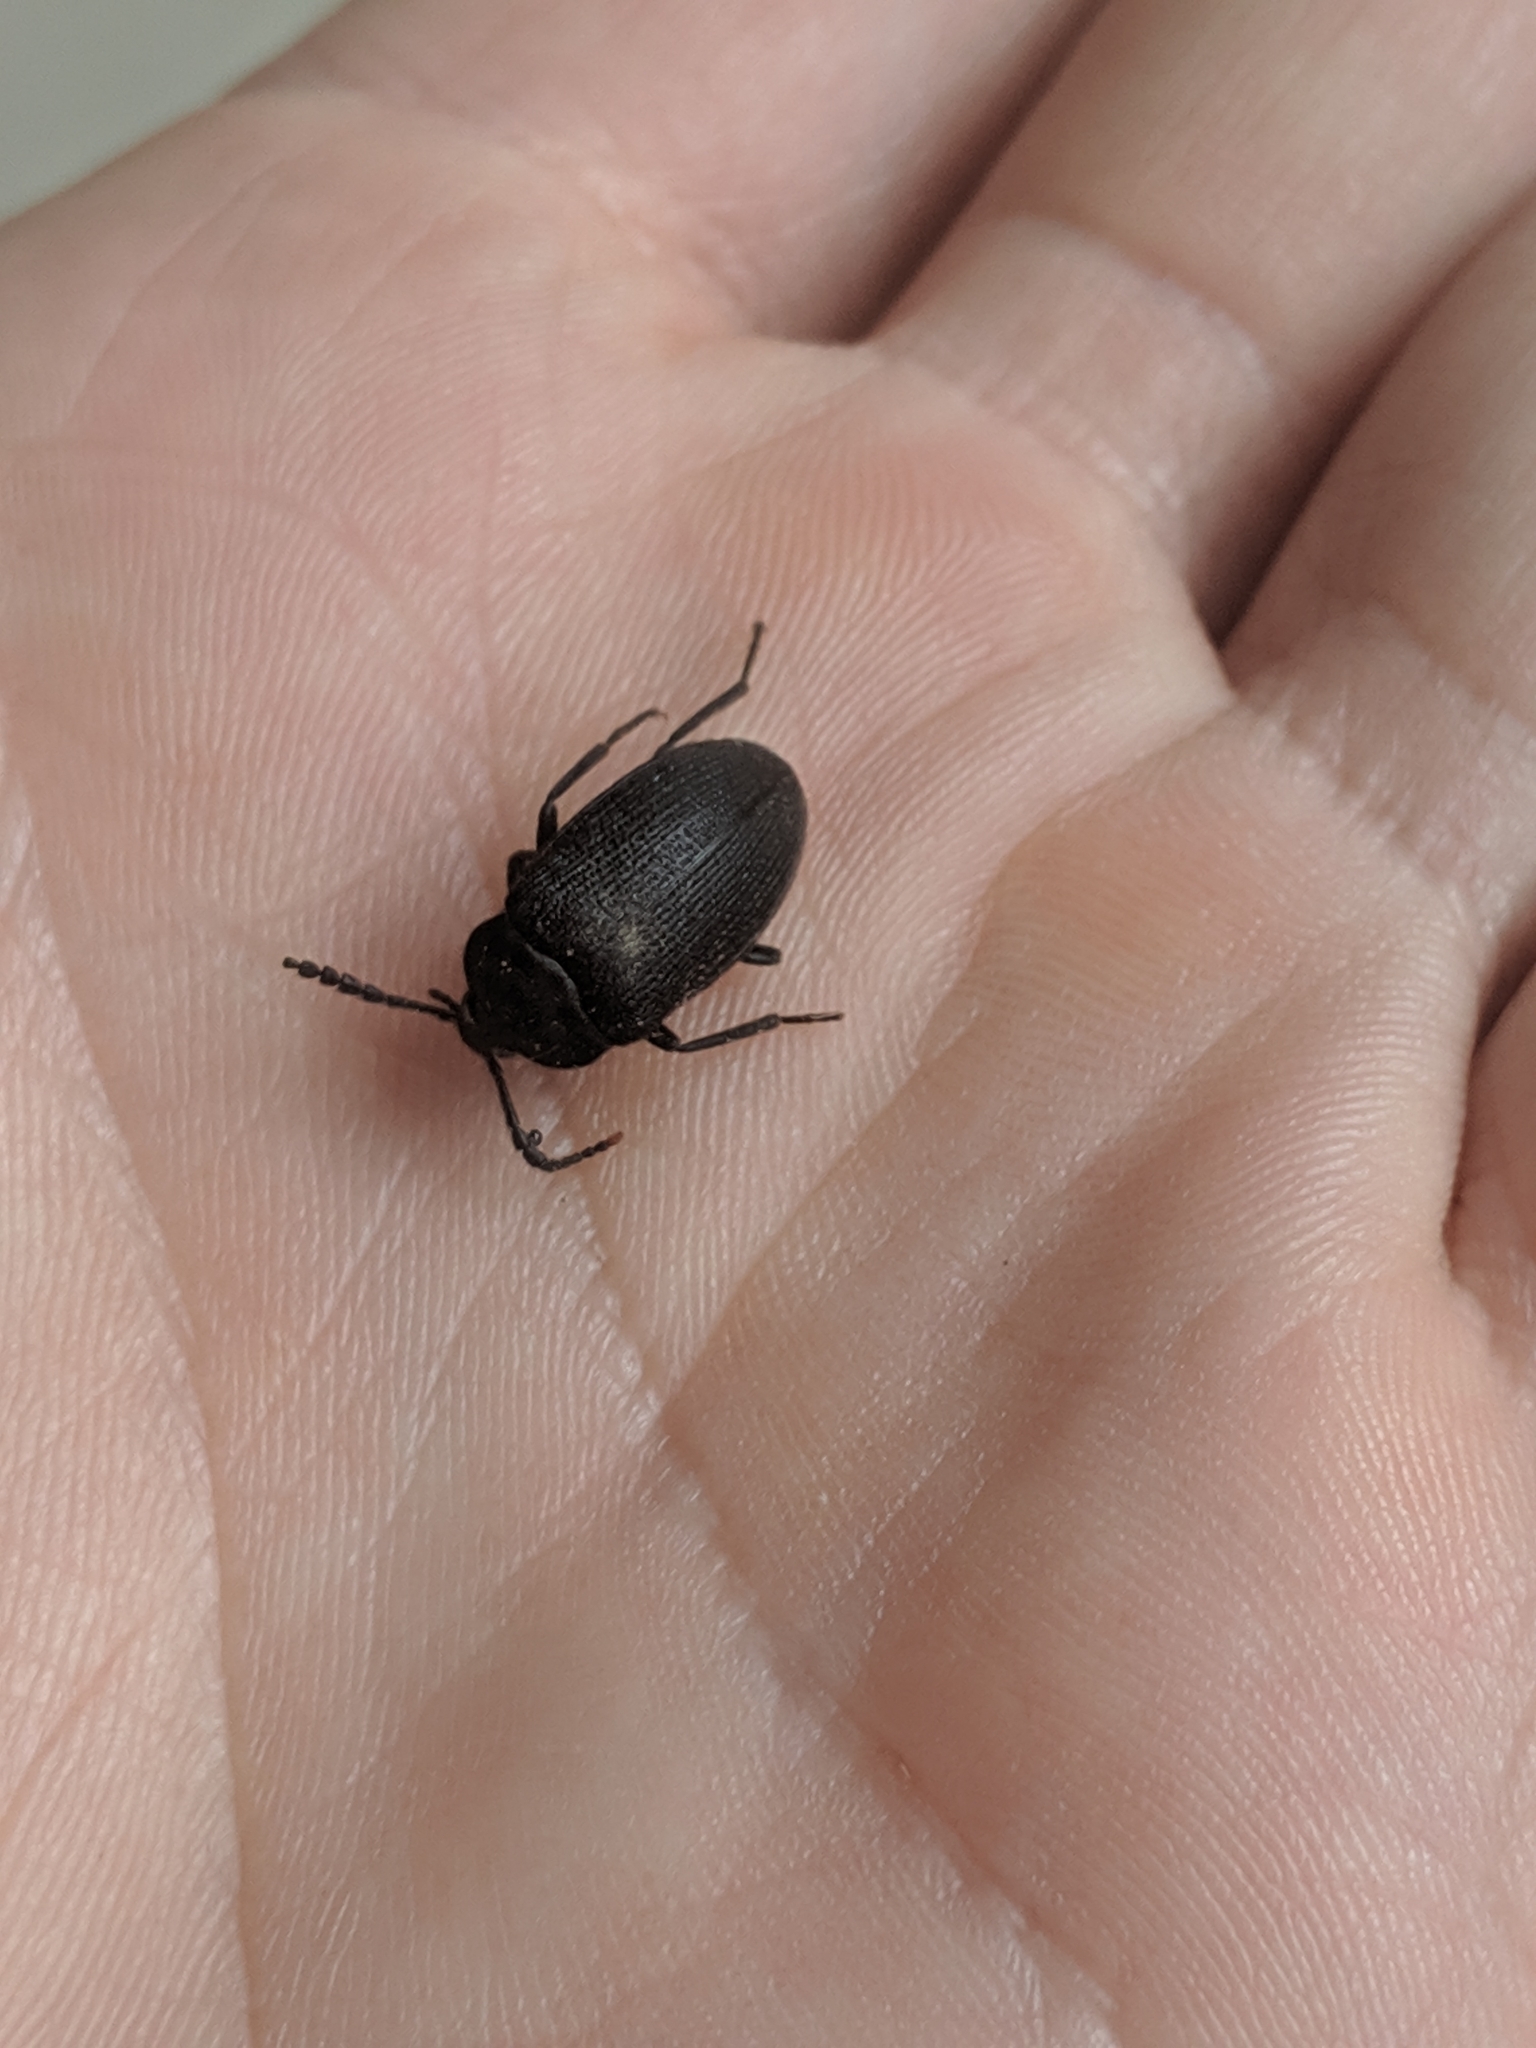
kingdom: Animalia
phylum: Arthropoda
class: Insecta
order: Coleoptera
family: Tetratomidae
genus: Penthe
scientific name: Penthe pimelia
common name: Velvety bark beetle
